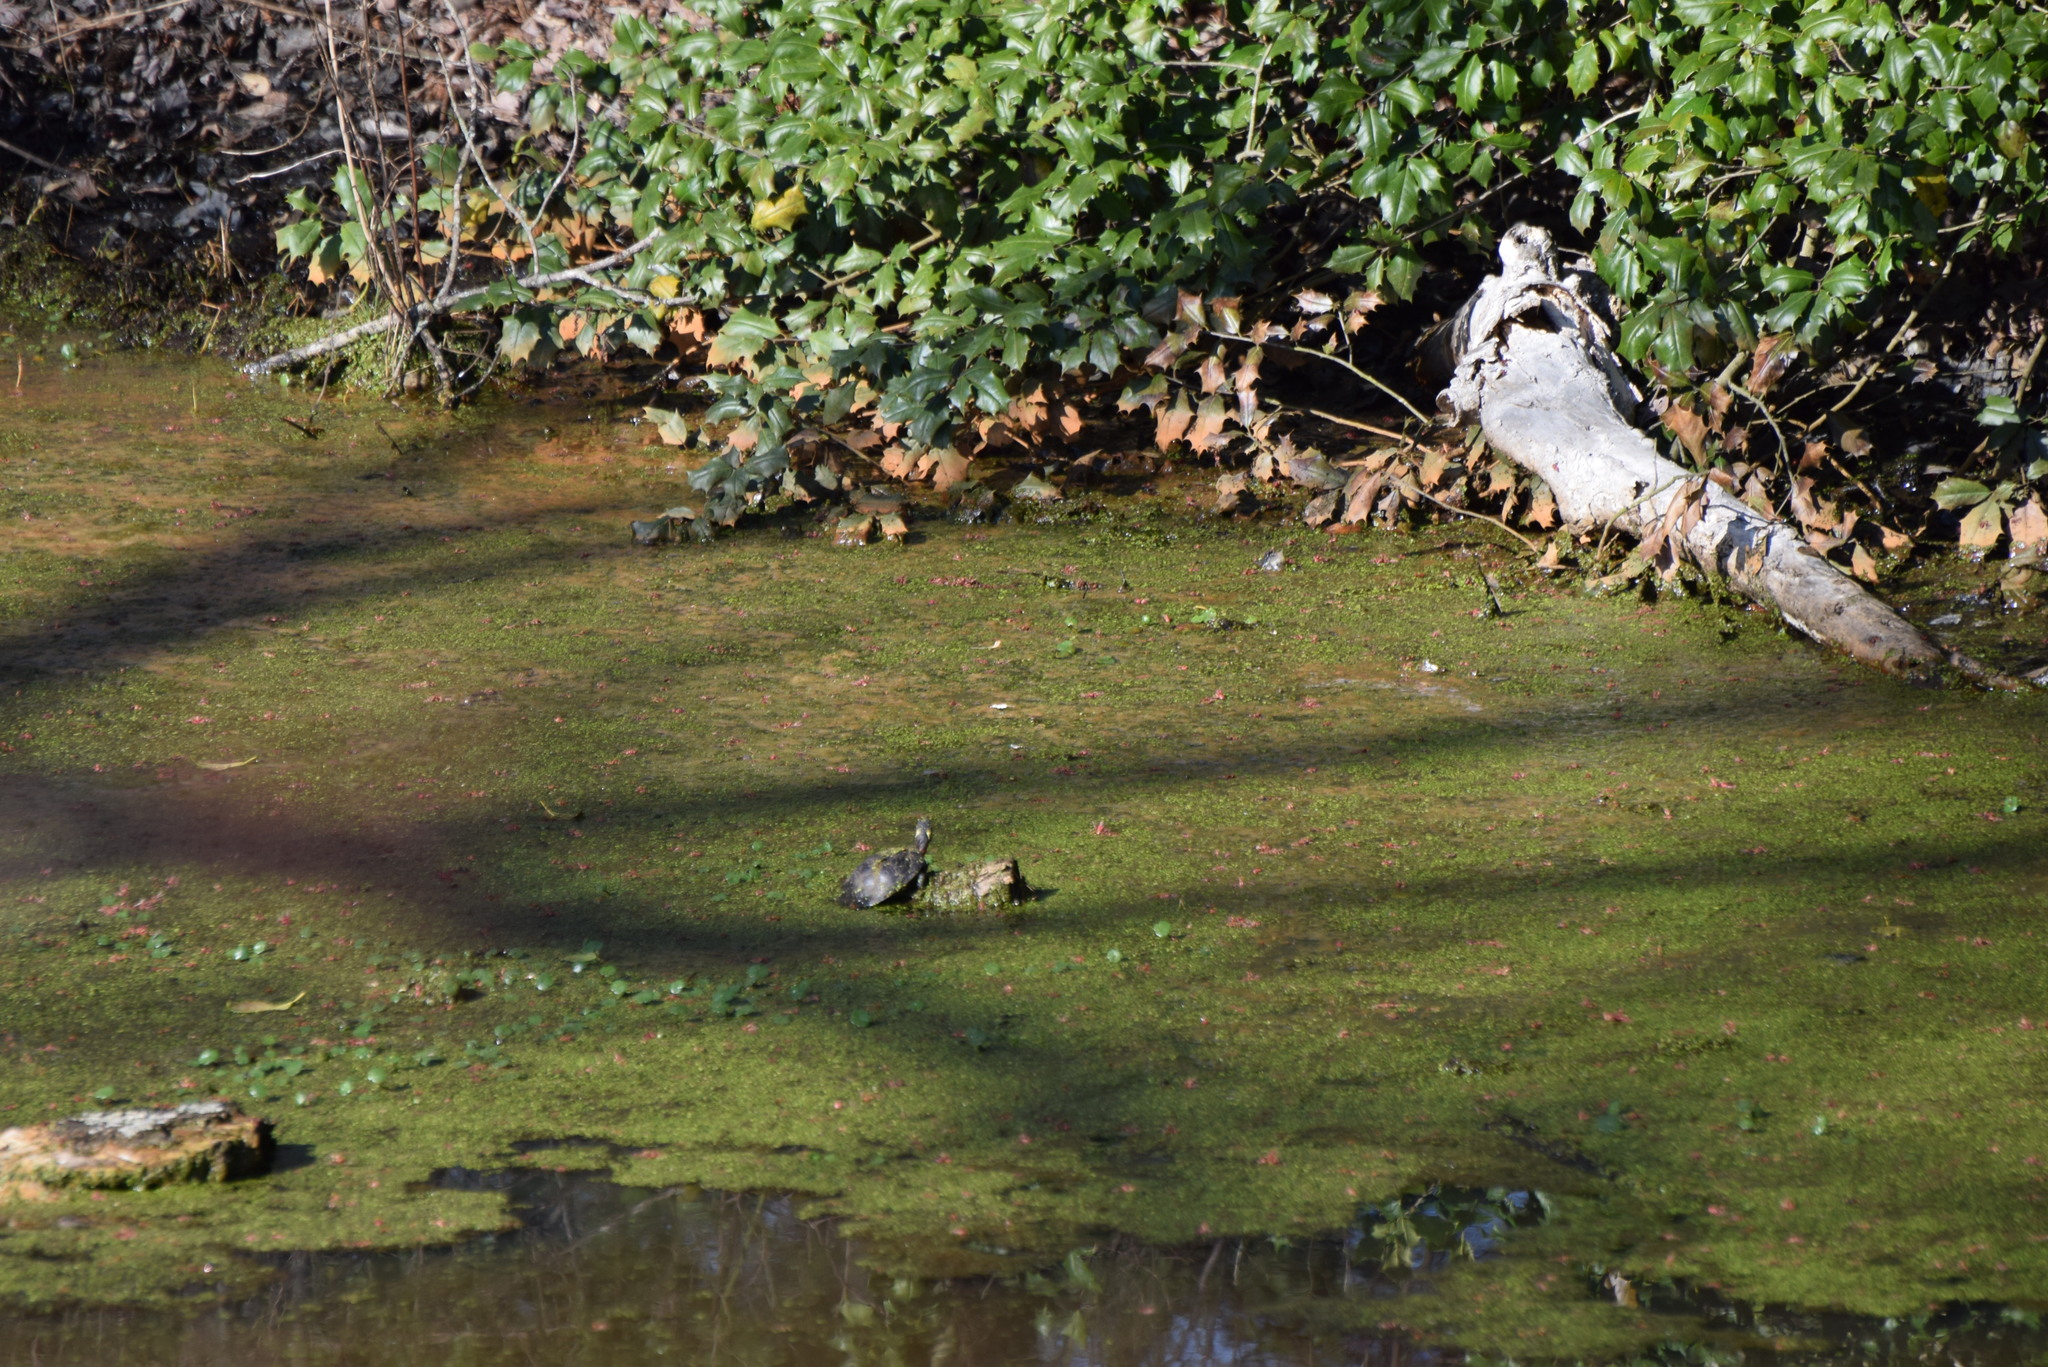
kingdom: Animalia
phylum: Chordata
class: Testudines
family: Emydidae
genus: Chrysemys
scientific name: Chrysemys picta
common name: Painted turtle
